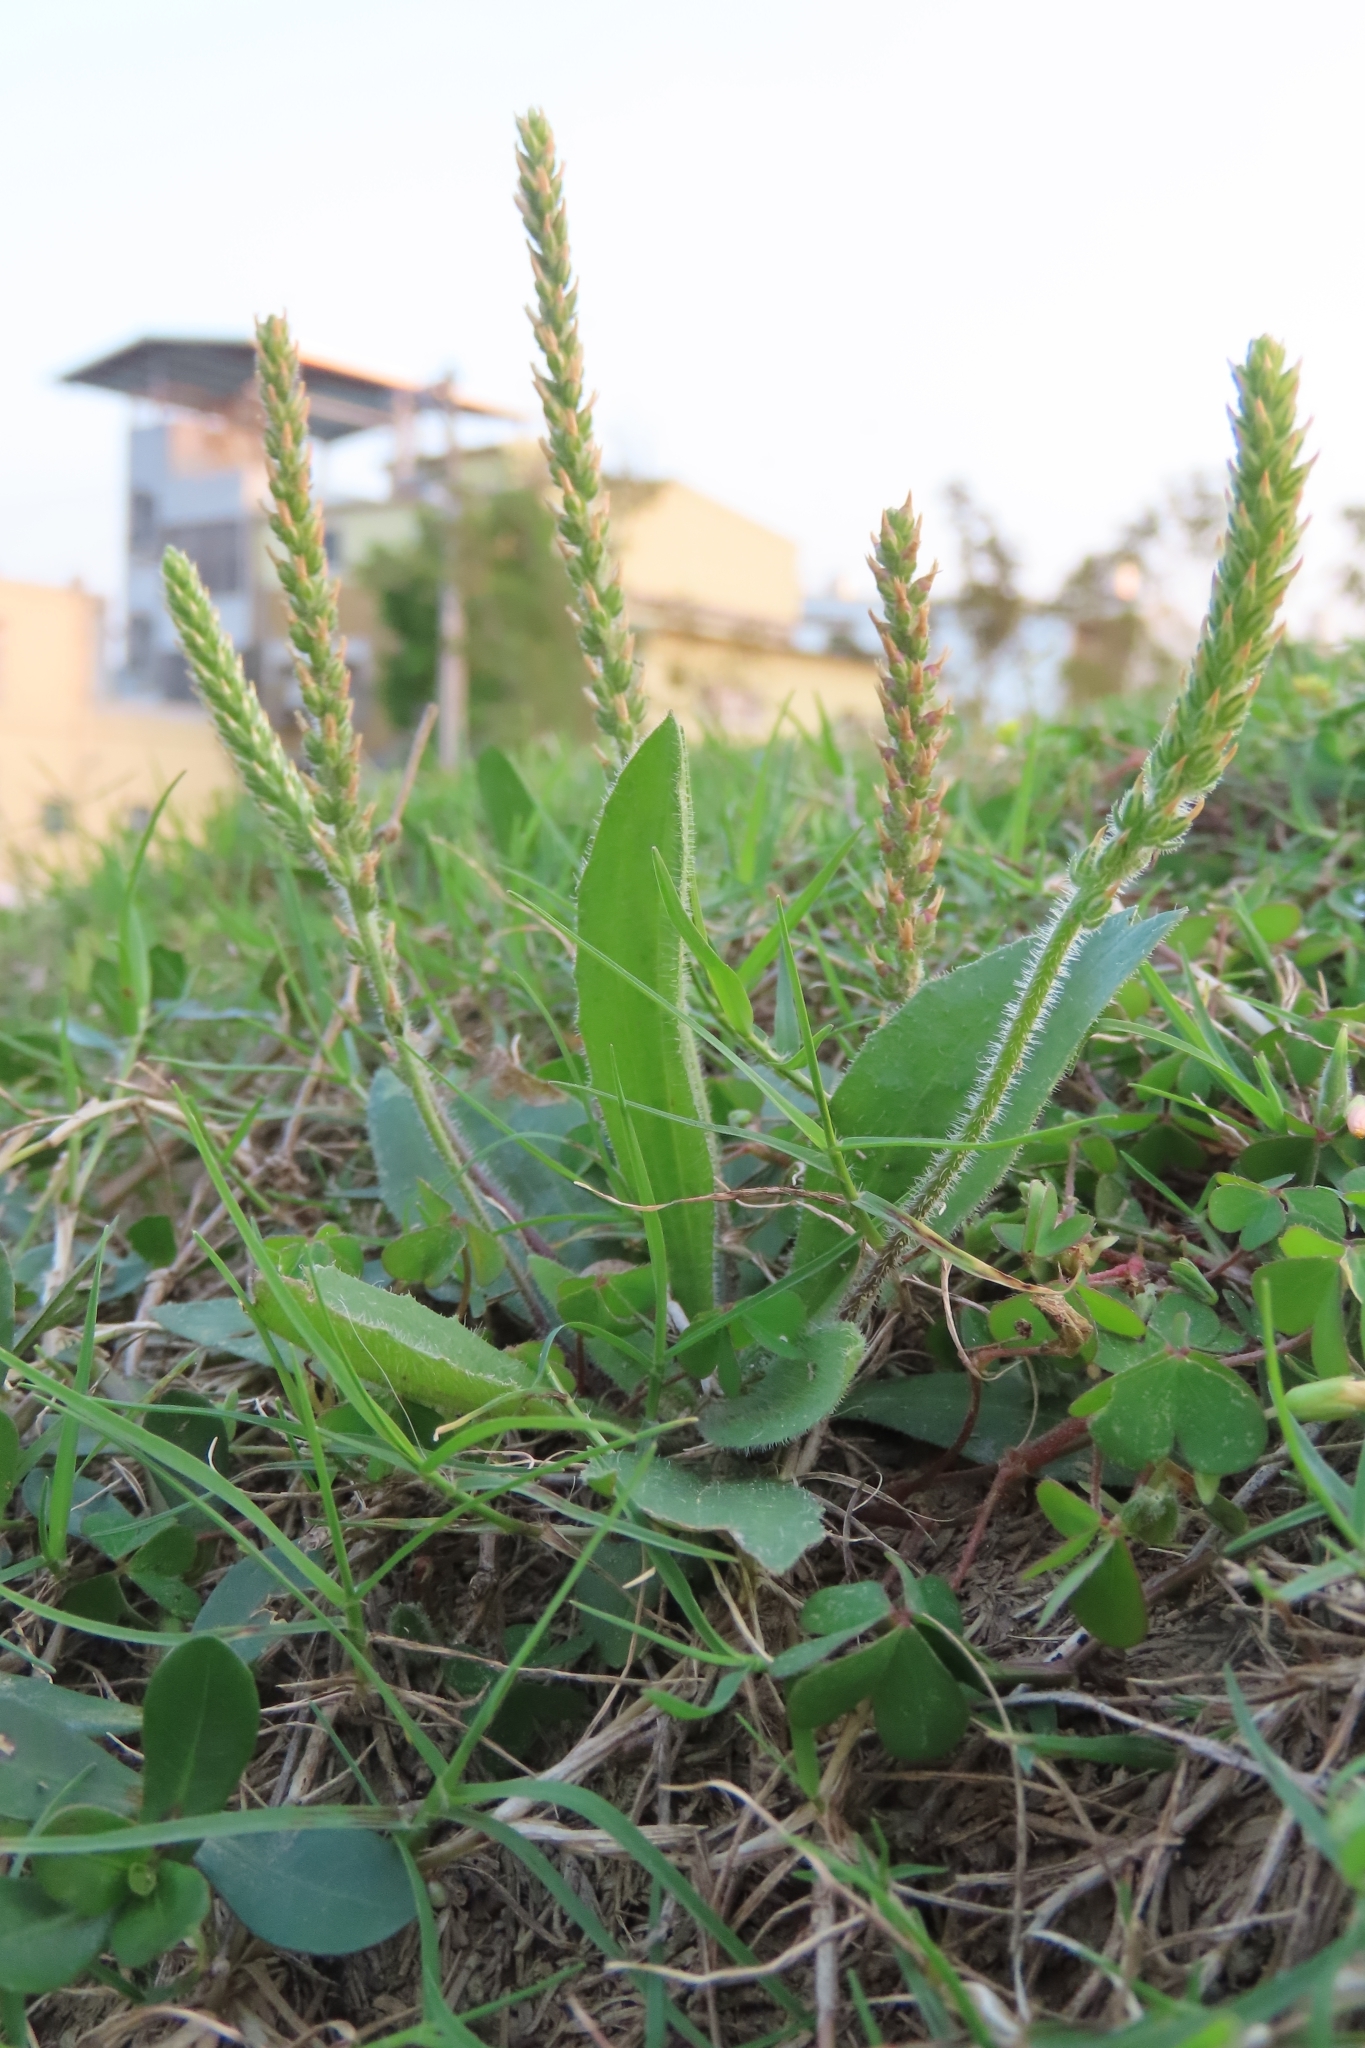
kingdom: Plantae
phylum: Tracheophyta
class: Magnoliopsida
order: Lamiales
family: Plantaginaceae
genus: Plantago
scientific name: Plantago virginica
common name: Hoary plantain
